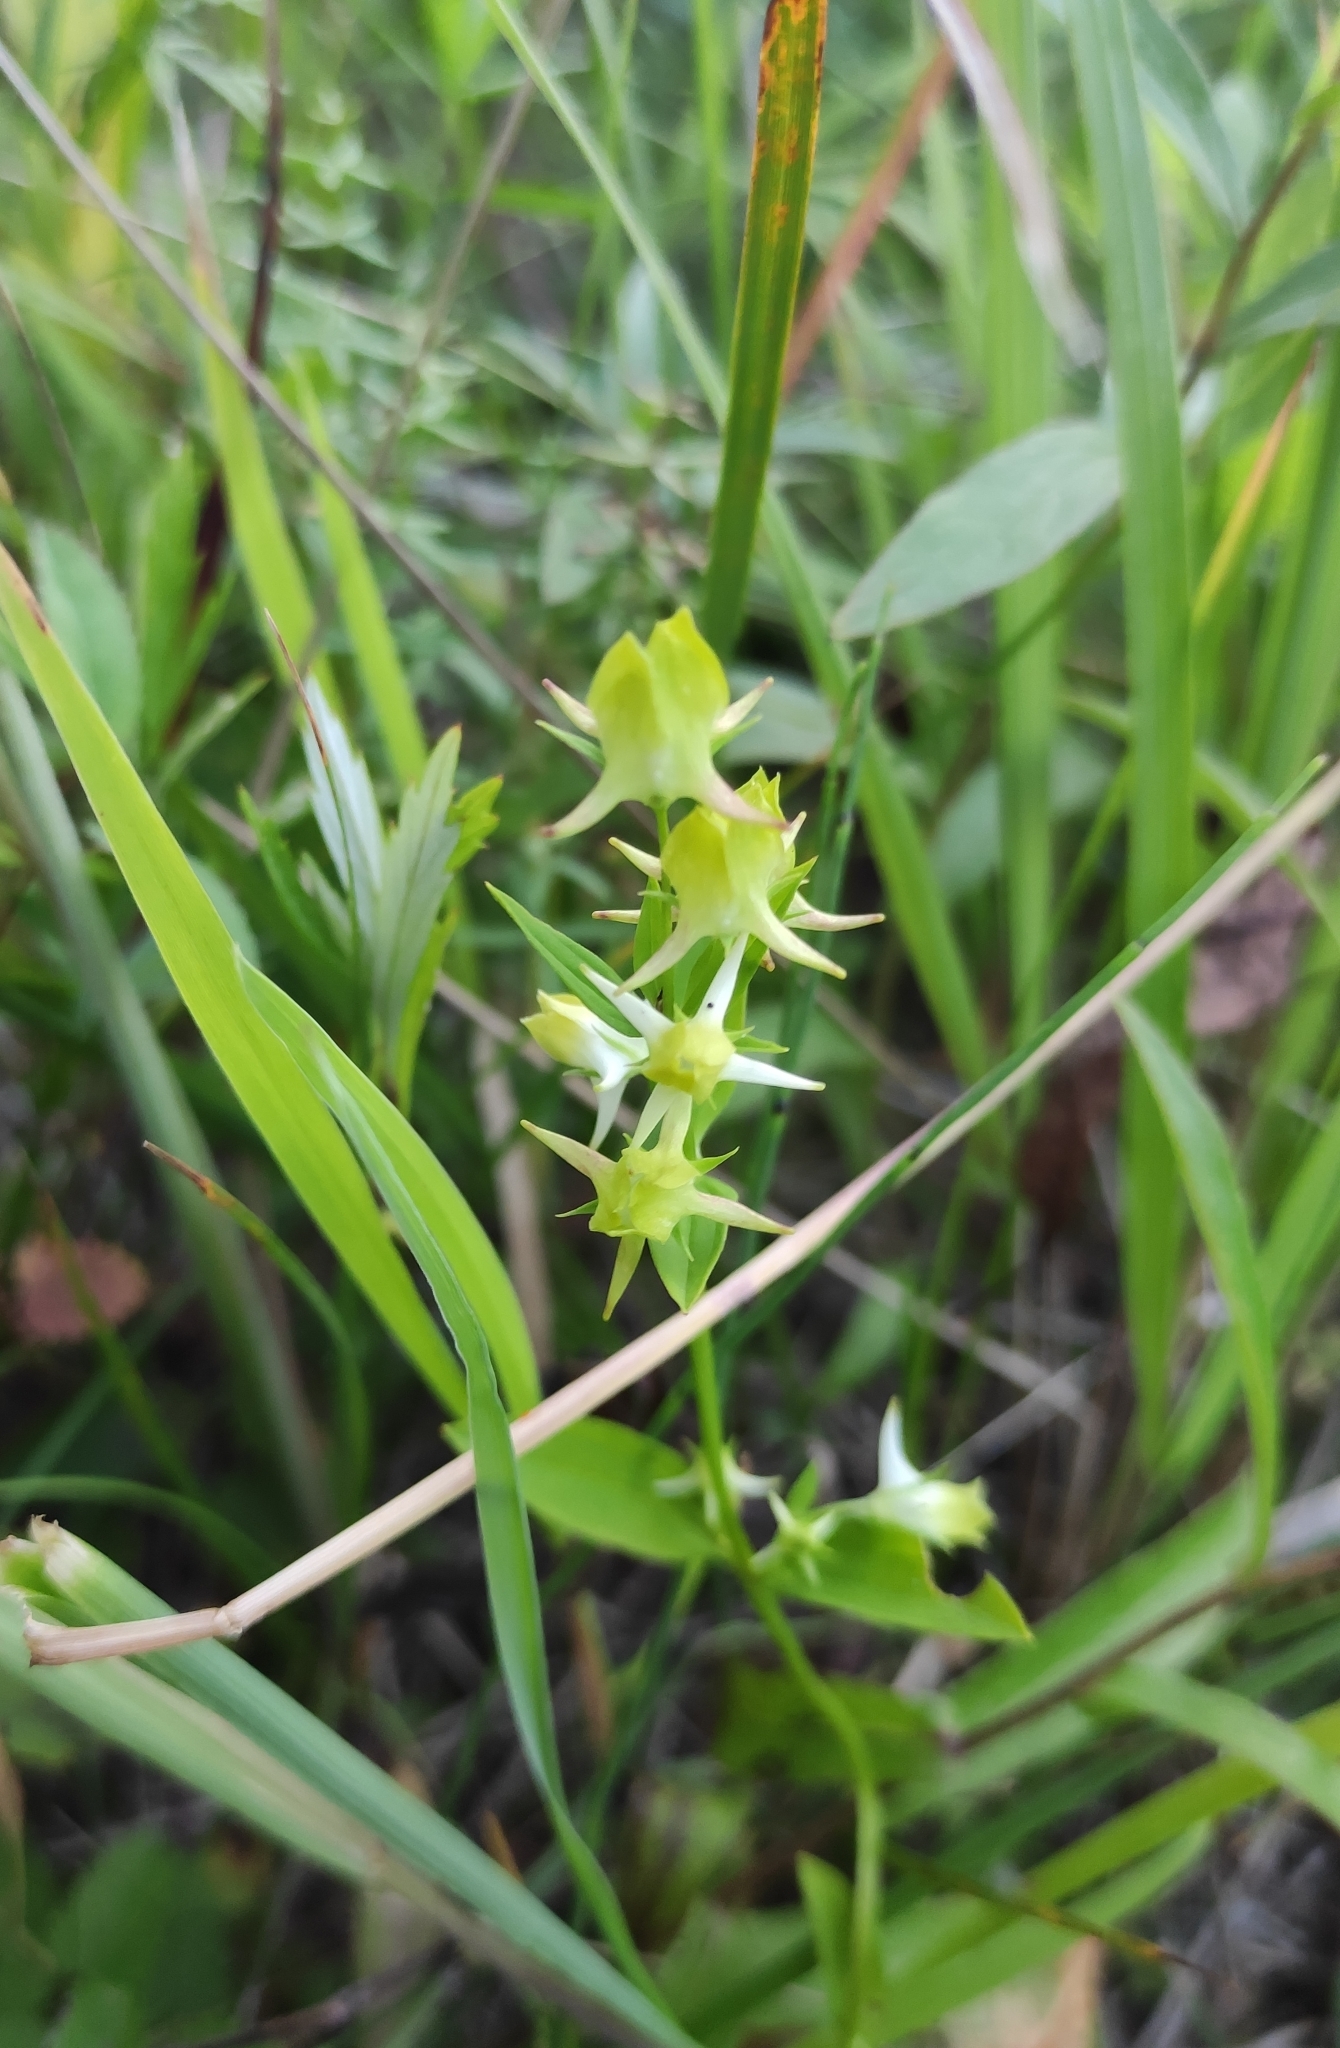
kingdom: Plantae
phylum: Tracheophyta
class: Magnoliopsida
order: Gentianales
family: Gentianaceae
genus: Halenia
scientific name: Halenia corniculata
